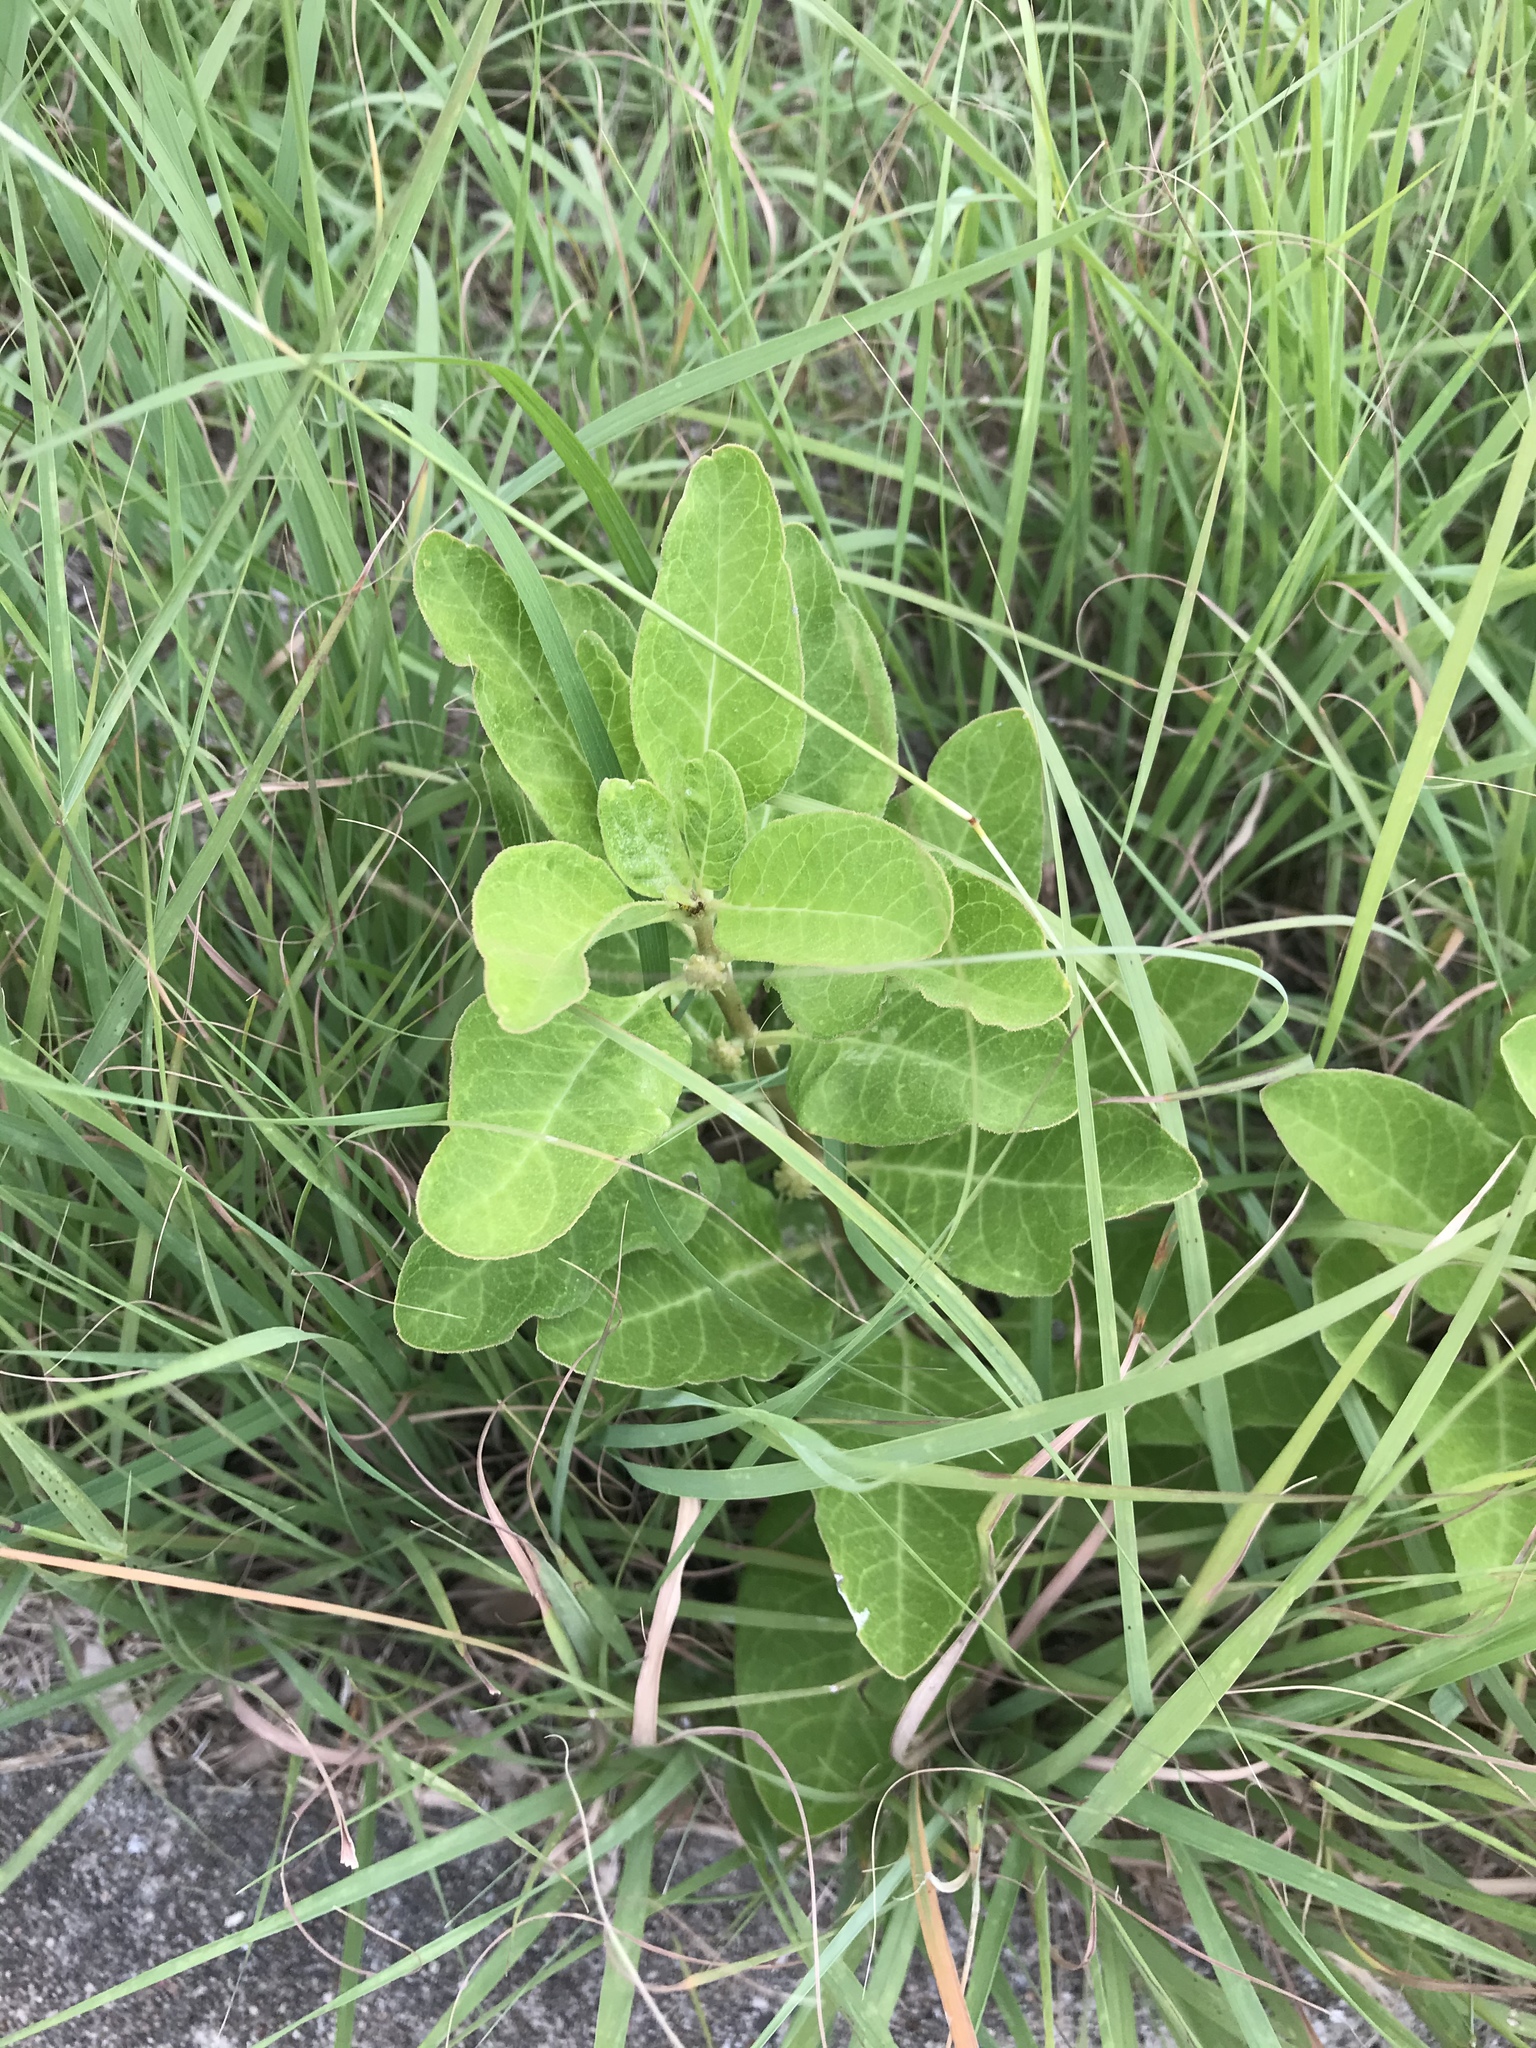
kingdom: Plantae
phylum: Tracheophyta
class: Magnoliopsida
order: Gentianales
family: Apocynaceae
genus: Asclepias
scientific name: Asclepias oenotheroides
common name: Zizotes milkweed
